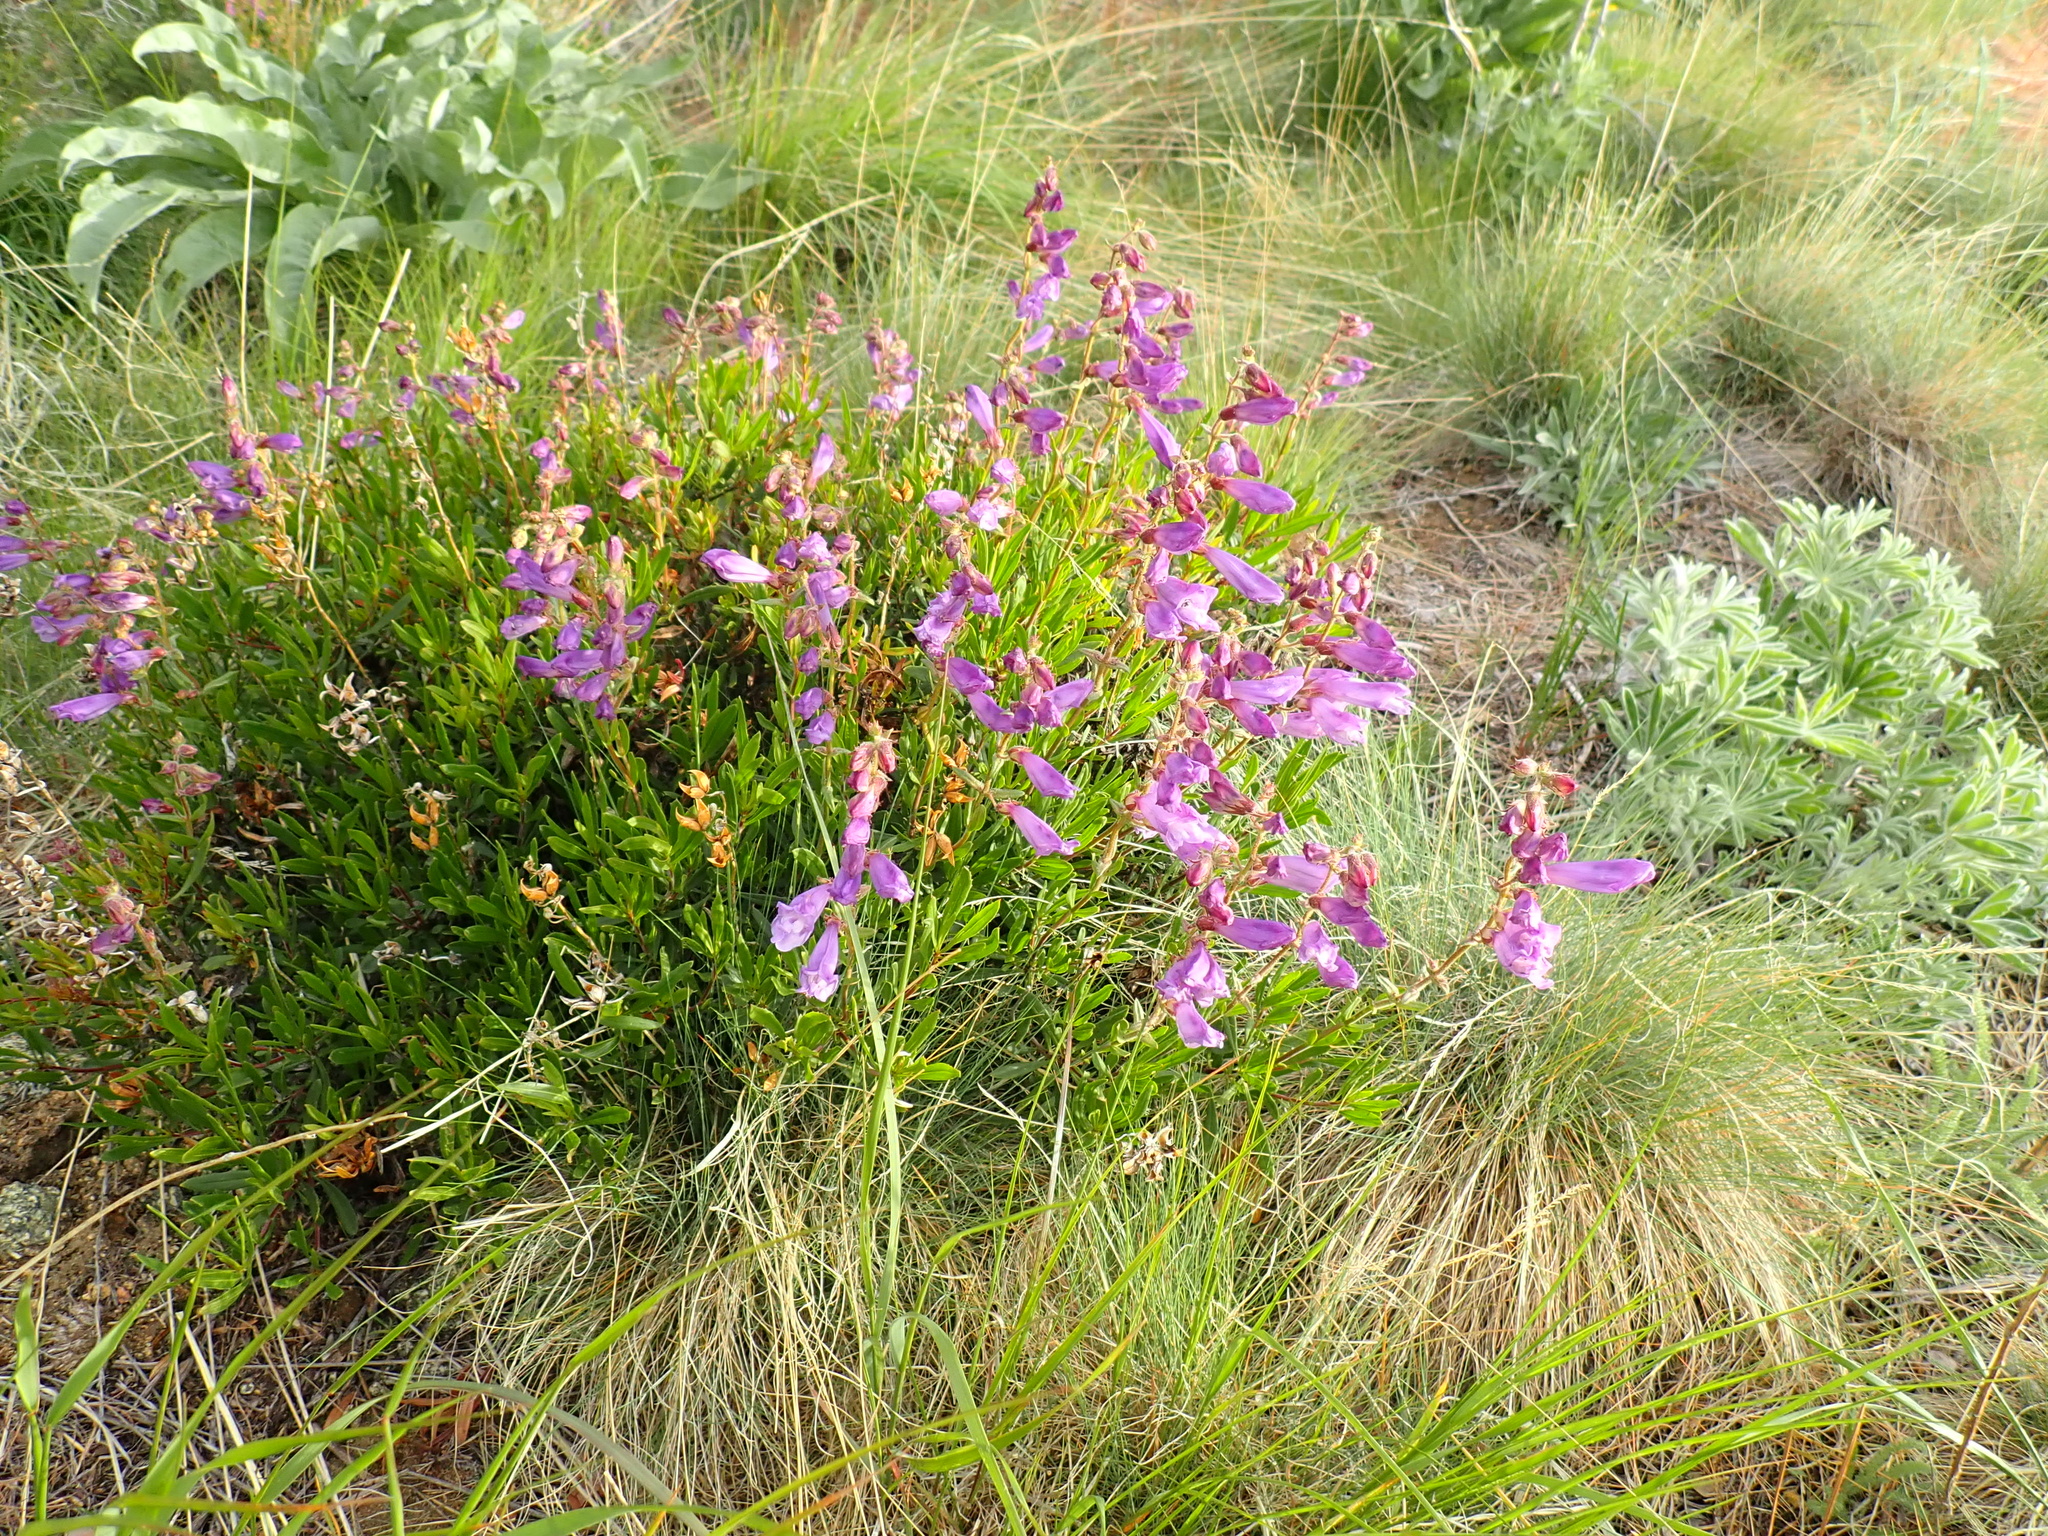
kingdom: Plantae
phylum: Tracheophyta
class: Magnoliopsida
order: Lamiales
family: Plantaginaceae
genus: Penstemon
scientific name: Penstemon fruticosus
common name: Bush penstemon
